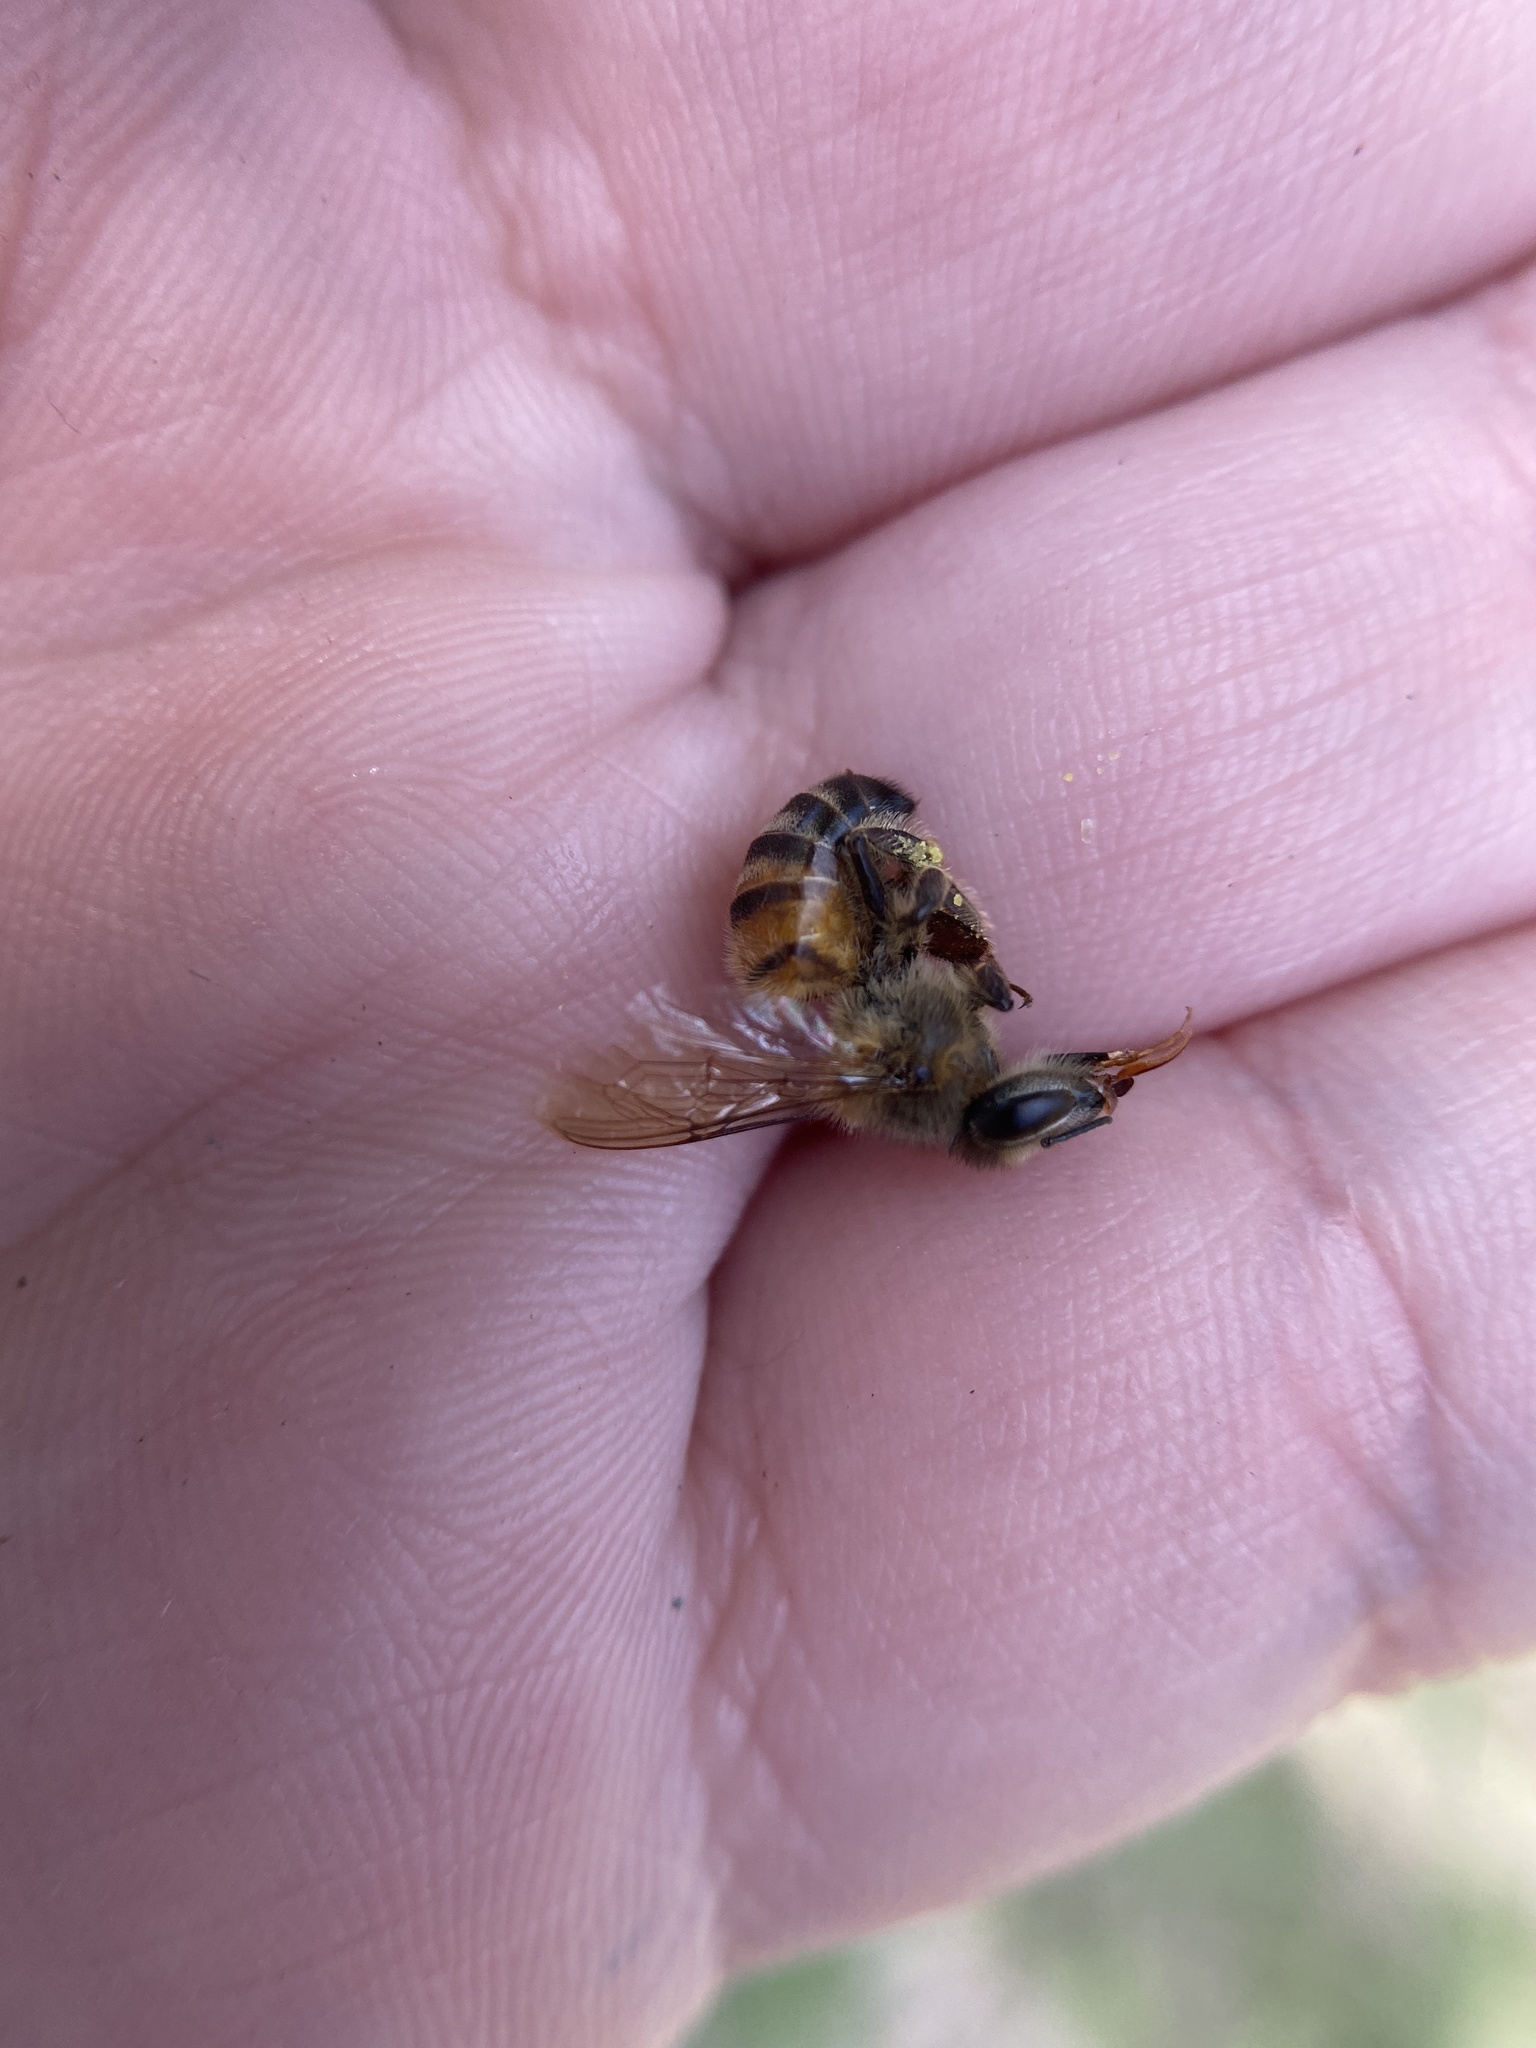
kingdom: Animalia
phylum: Arthropoda
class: Insecta
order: Hymenoptera
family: Apidae
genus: Apis
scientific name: Apis mellifera
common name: Honey bee
